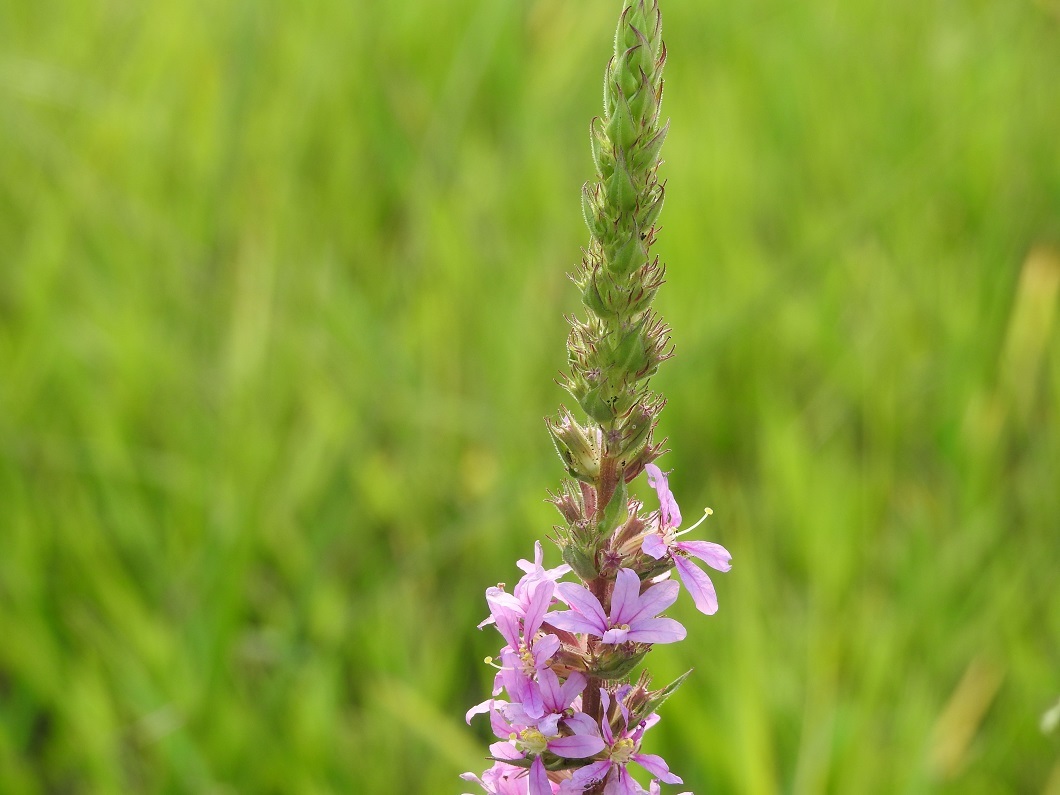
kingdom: Plantae
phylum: Tracheophyta
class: Magnoliopsida
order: Myrtales
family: Lythraceae
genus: Lythrum
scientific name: Lythrum salicaria
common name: Purple loosestrife
